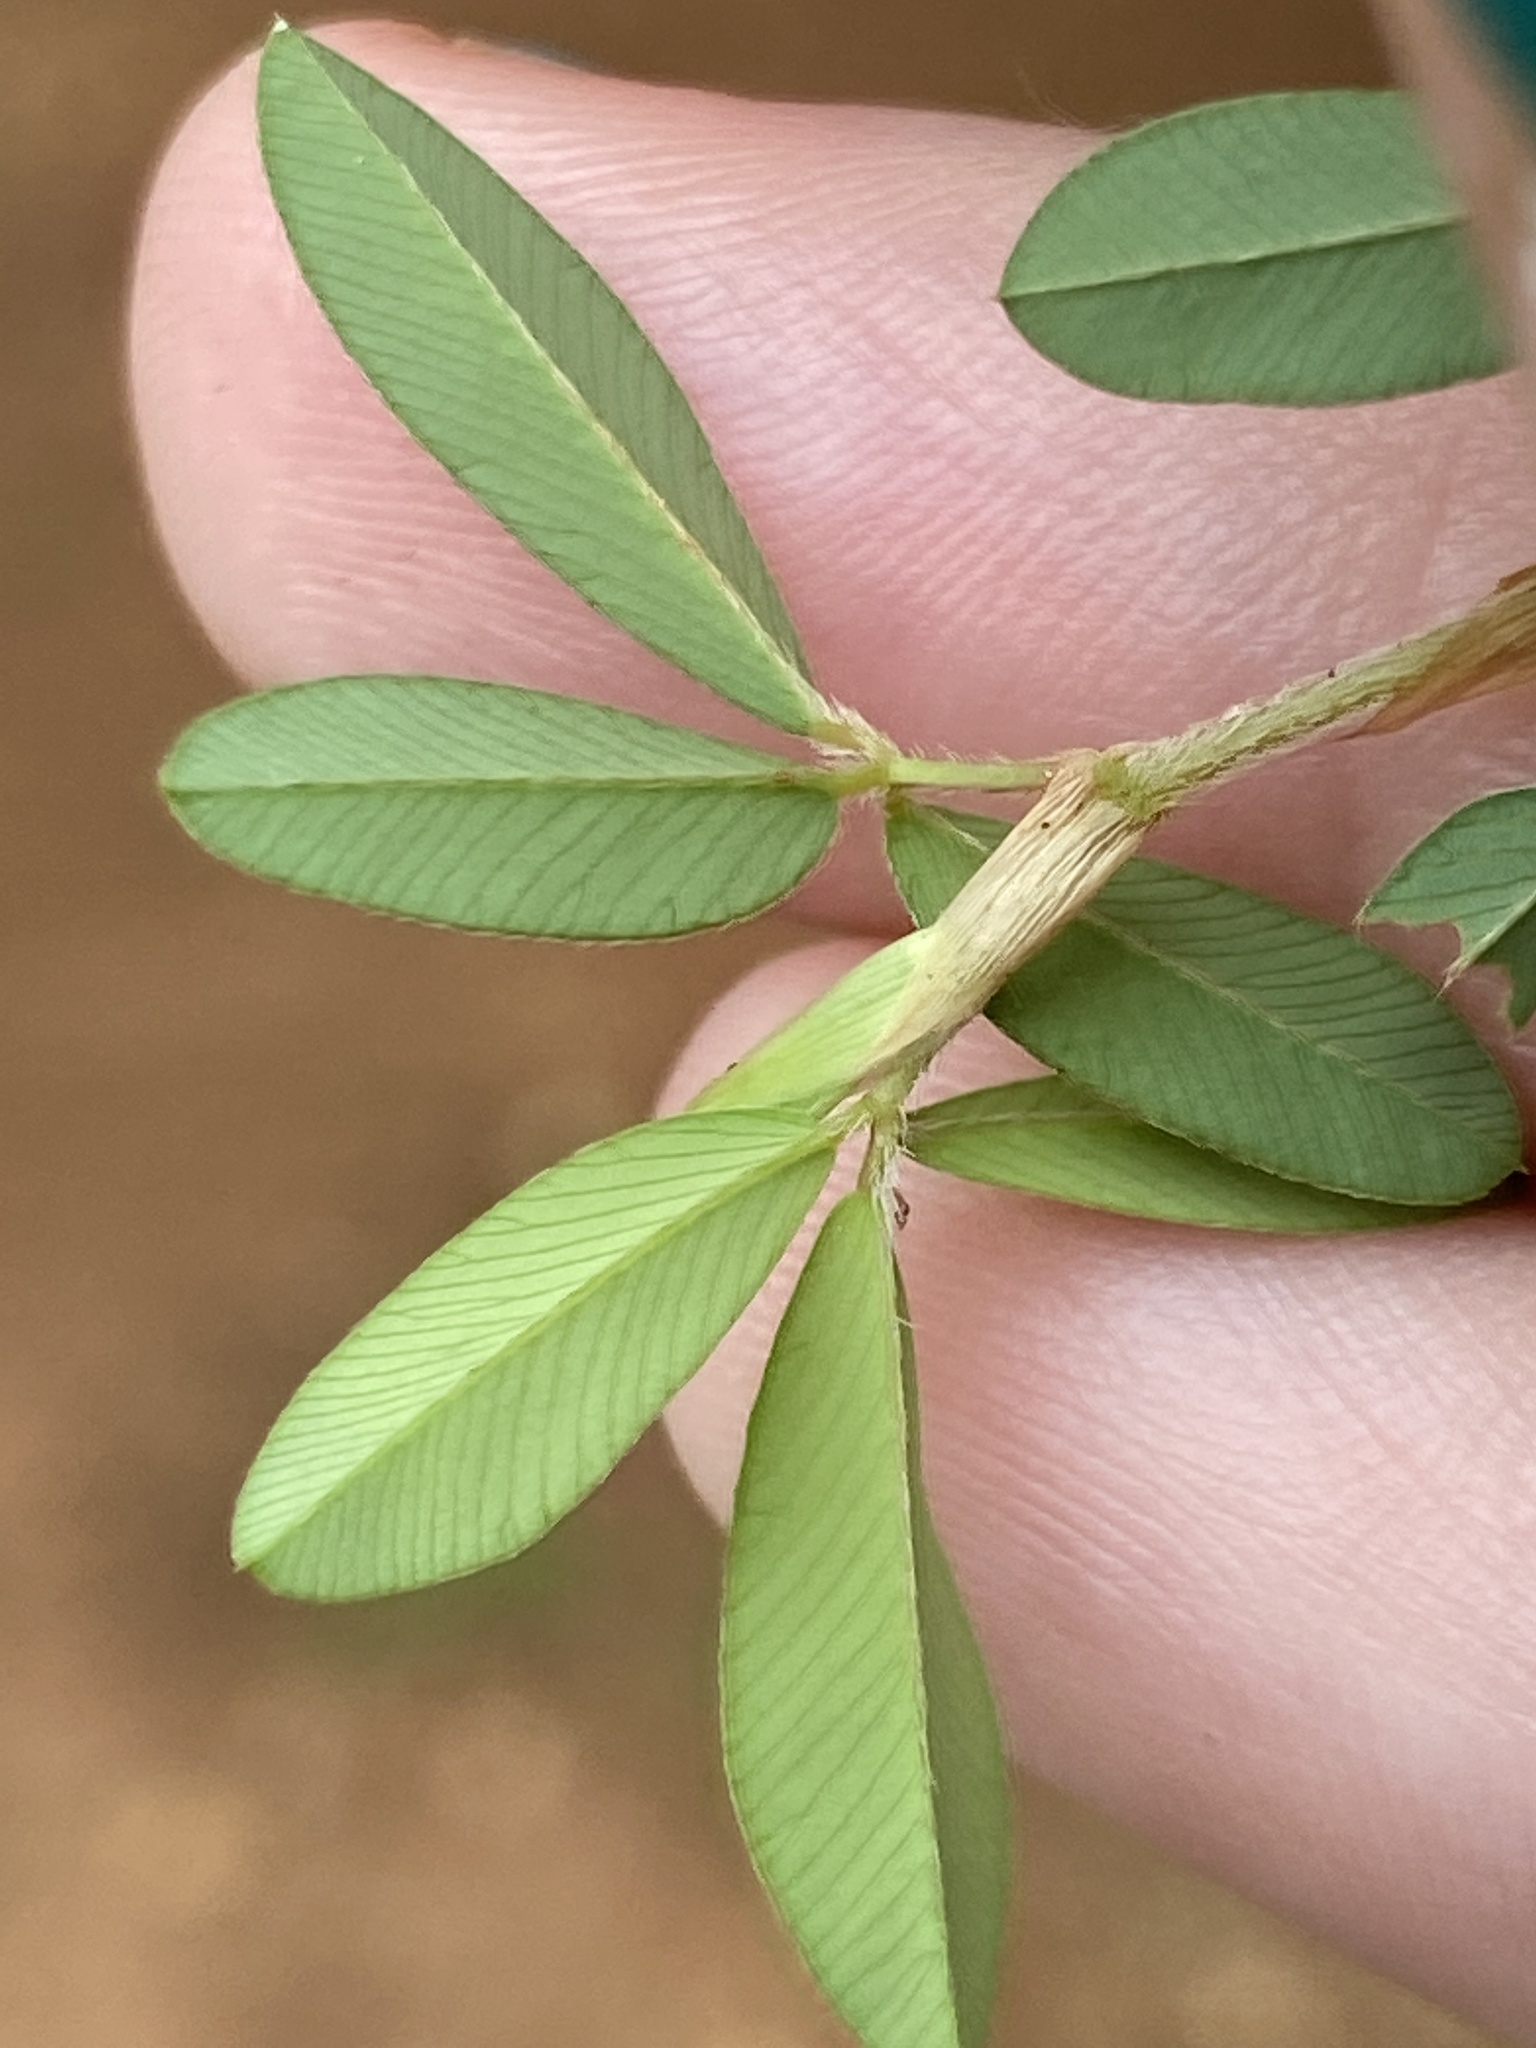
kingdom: Plantae
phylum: Tracheophyta
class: Magnoliopsida
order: Fabales
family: Fabaceae
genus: Kummerowia
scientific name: Kummerowia striata
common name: Japanese clover
